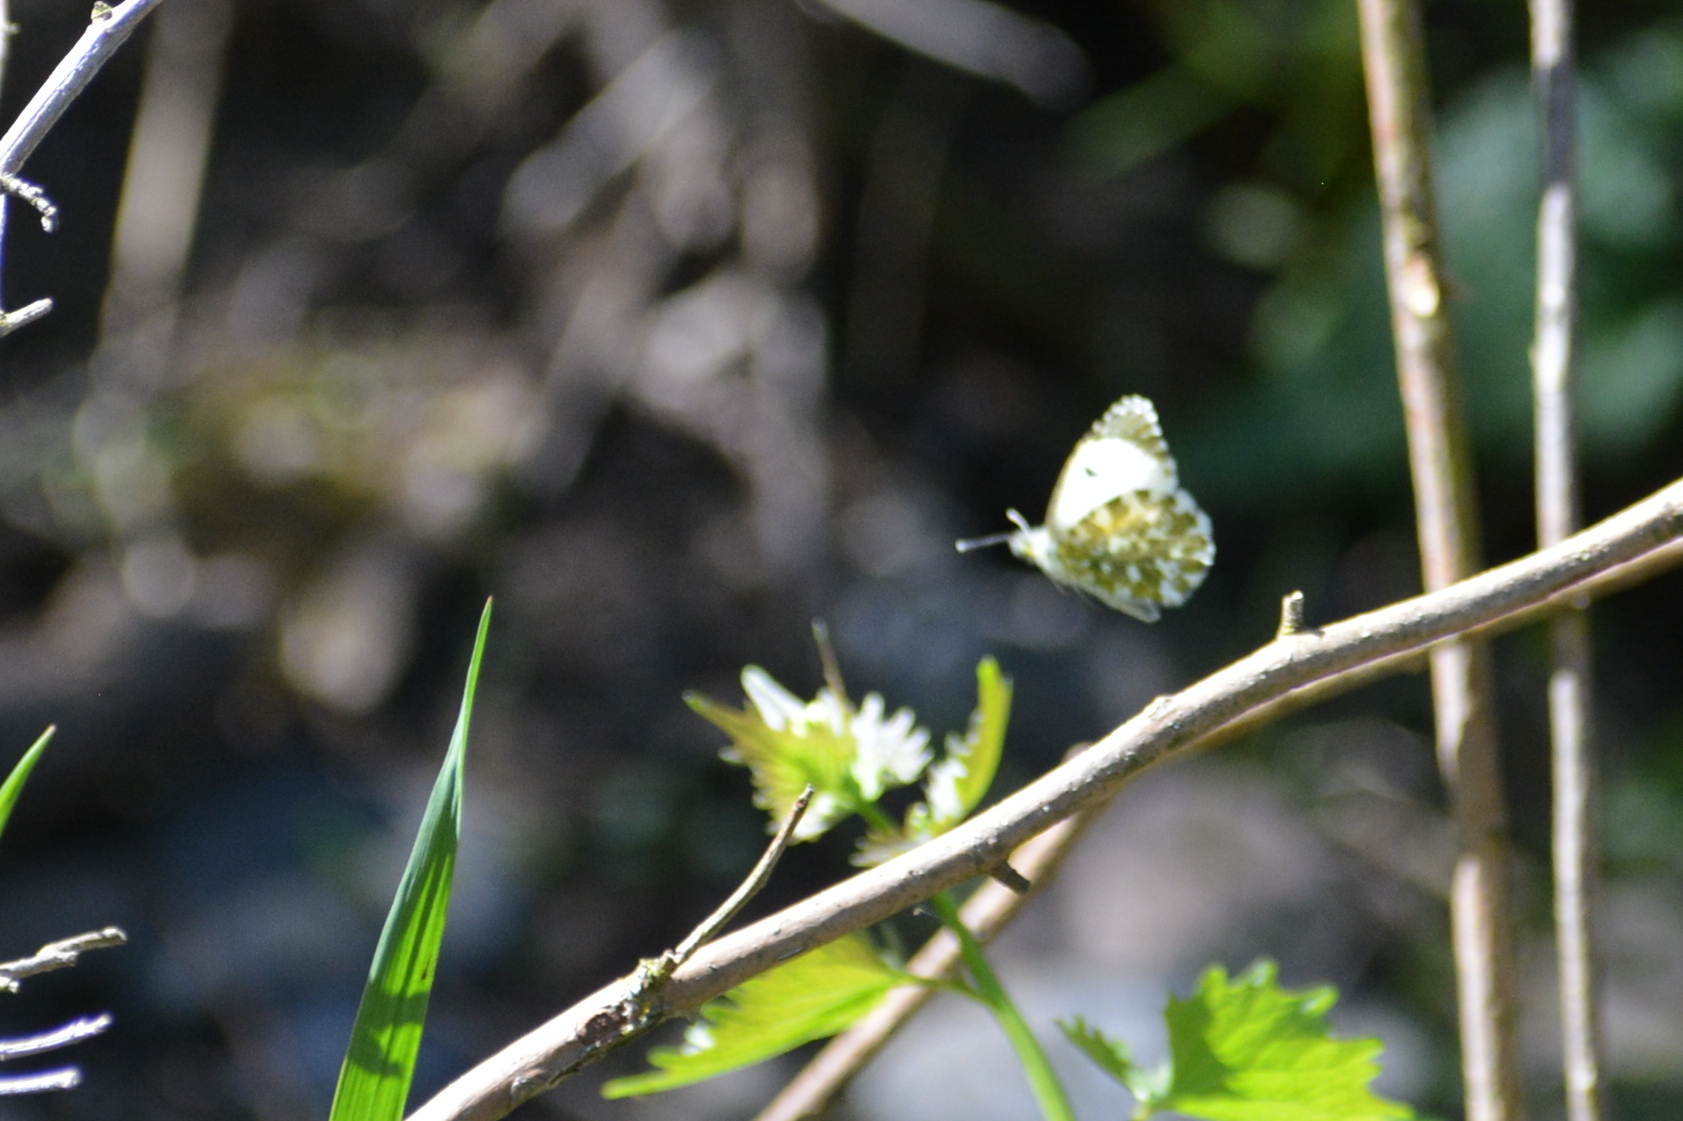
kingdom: Animalia
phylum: Arthropoda
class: Insecta
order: Lepidoptera
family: Pieridae
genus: Anthocharis
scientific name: Anthocharis cardamines
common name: Orange-tip
